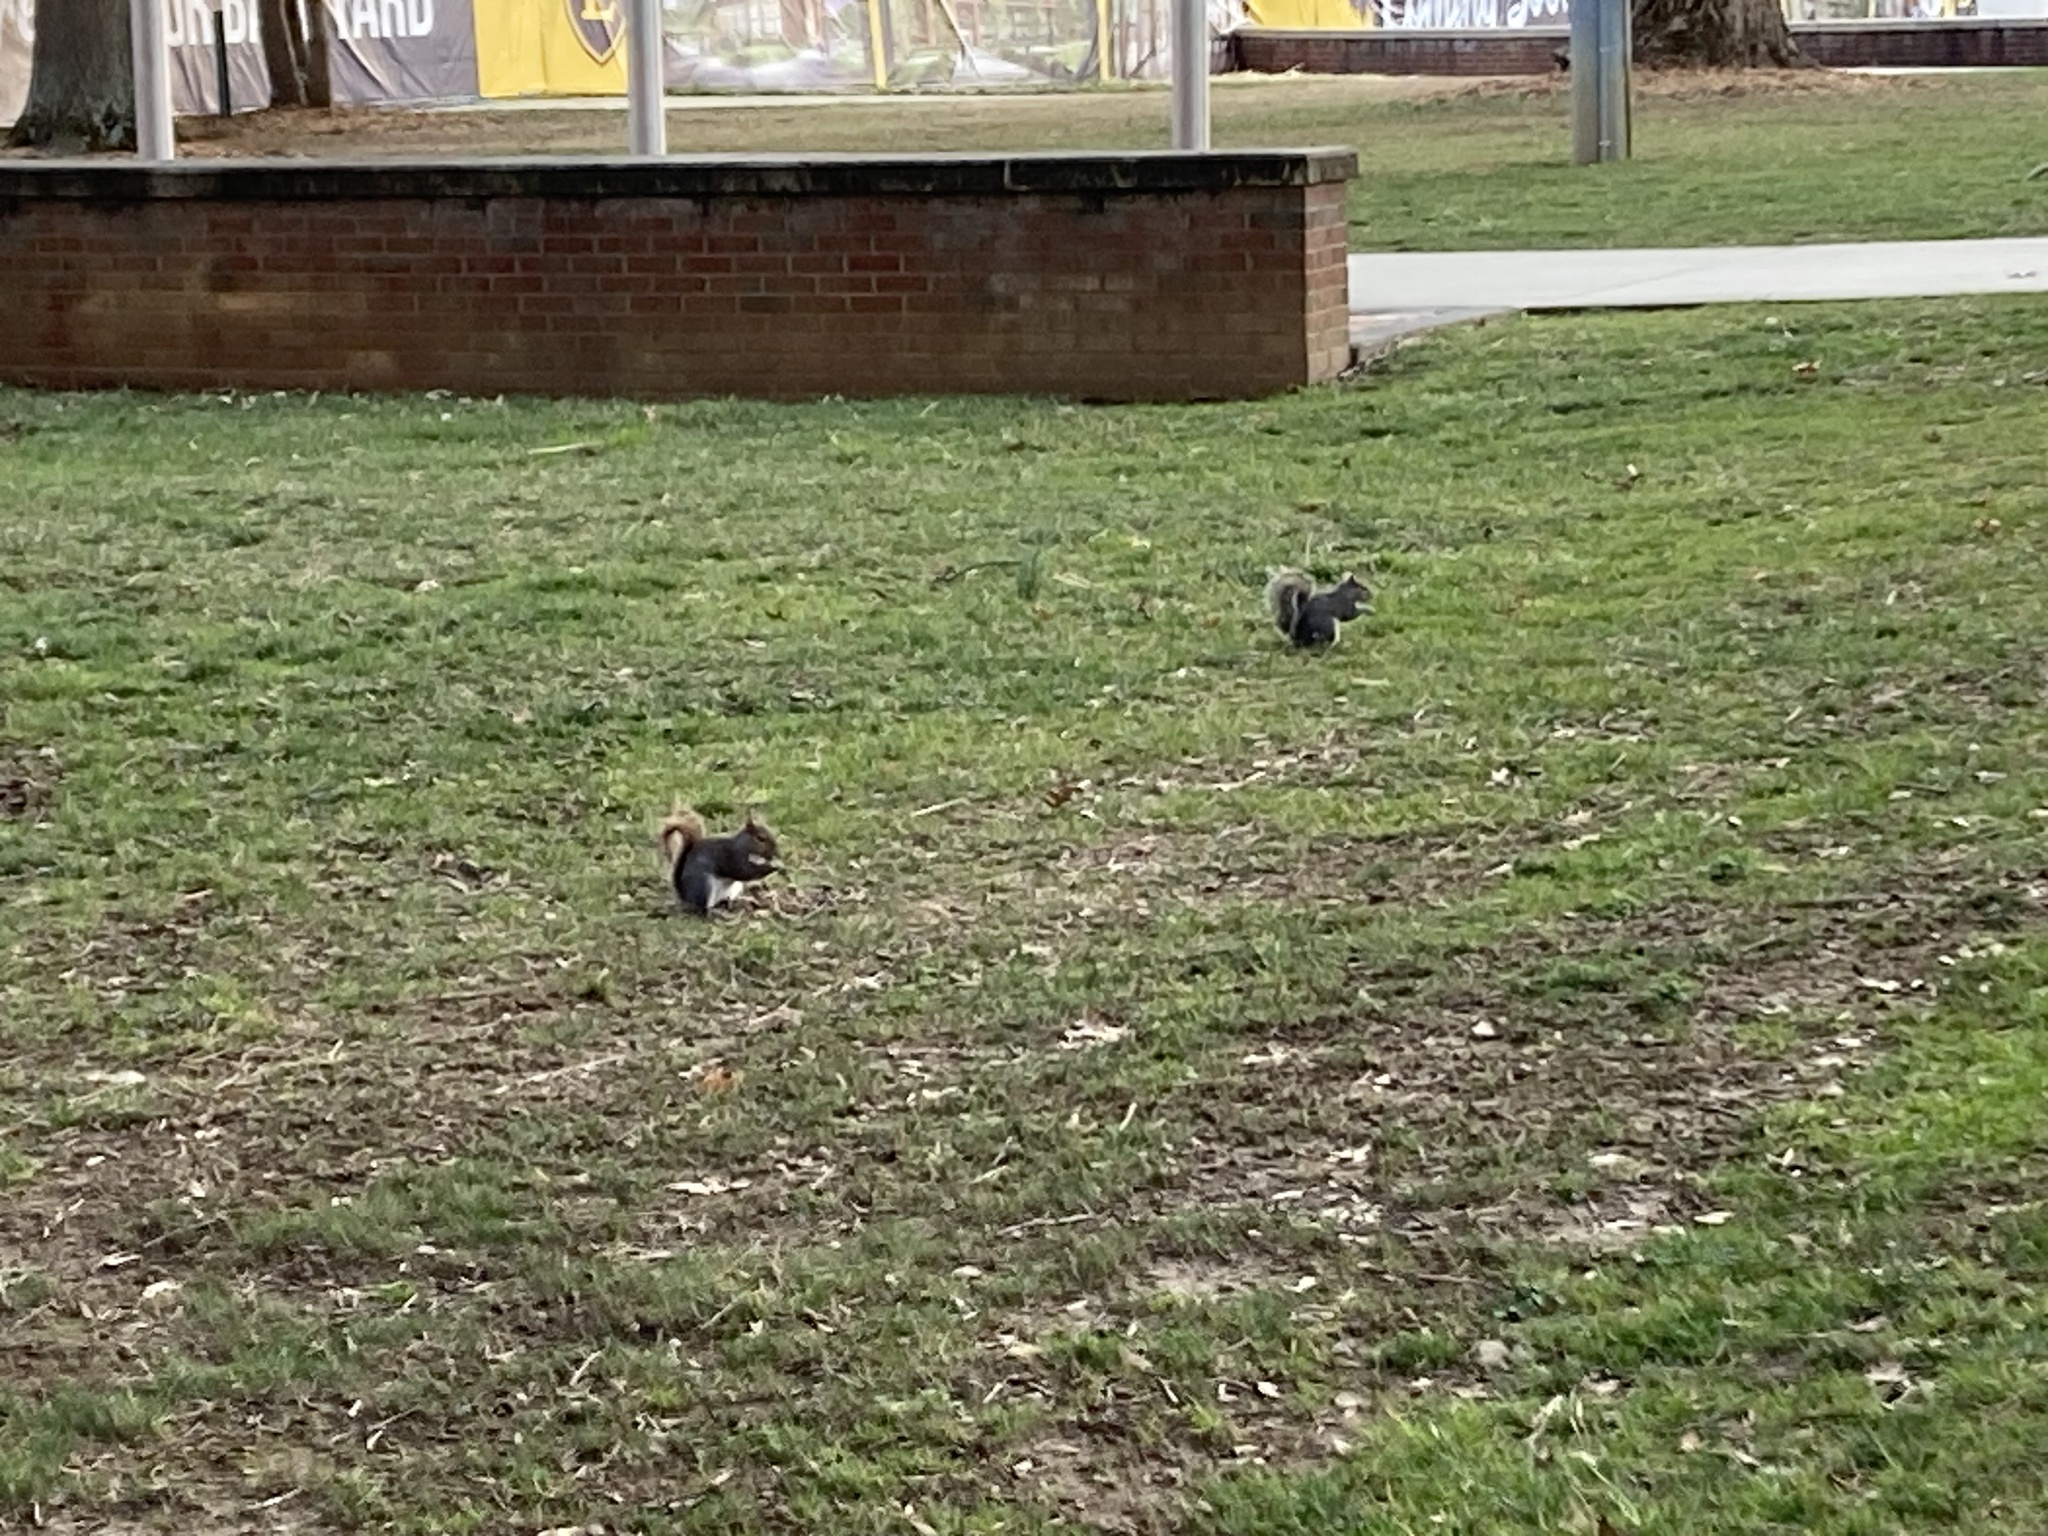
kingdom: Animalia
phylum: Chordata
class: Mammalia
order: Rodentia
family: Sciuridae
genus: Sciurus
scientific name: Sciurus carolinensis
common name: Eastern gray squirrel
